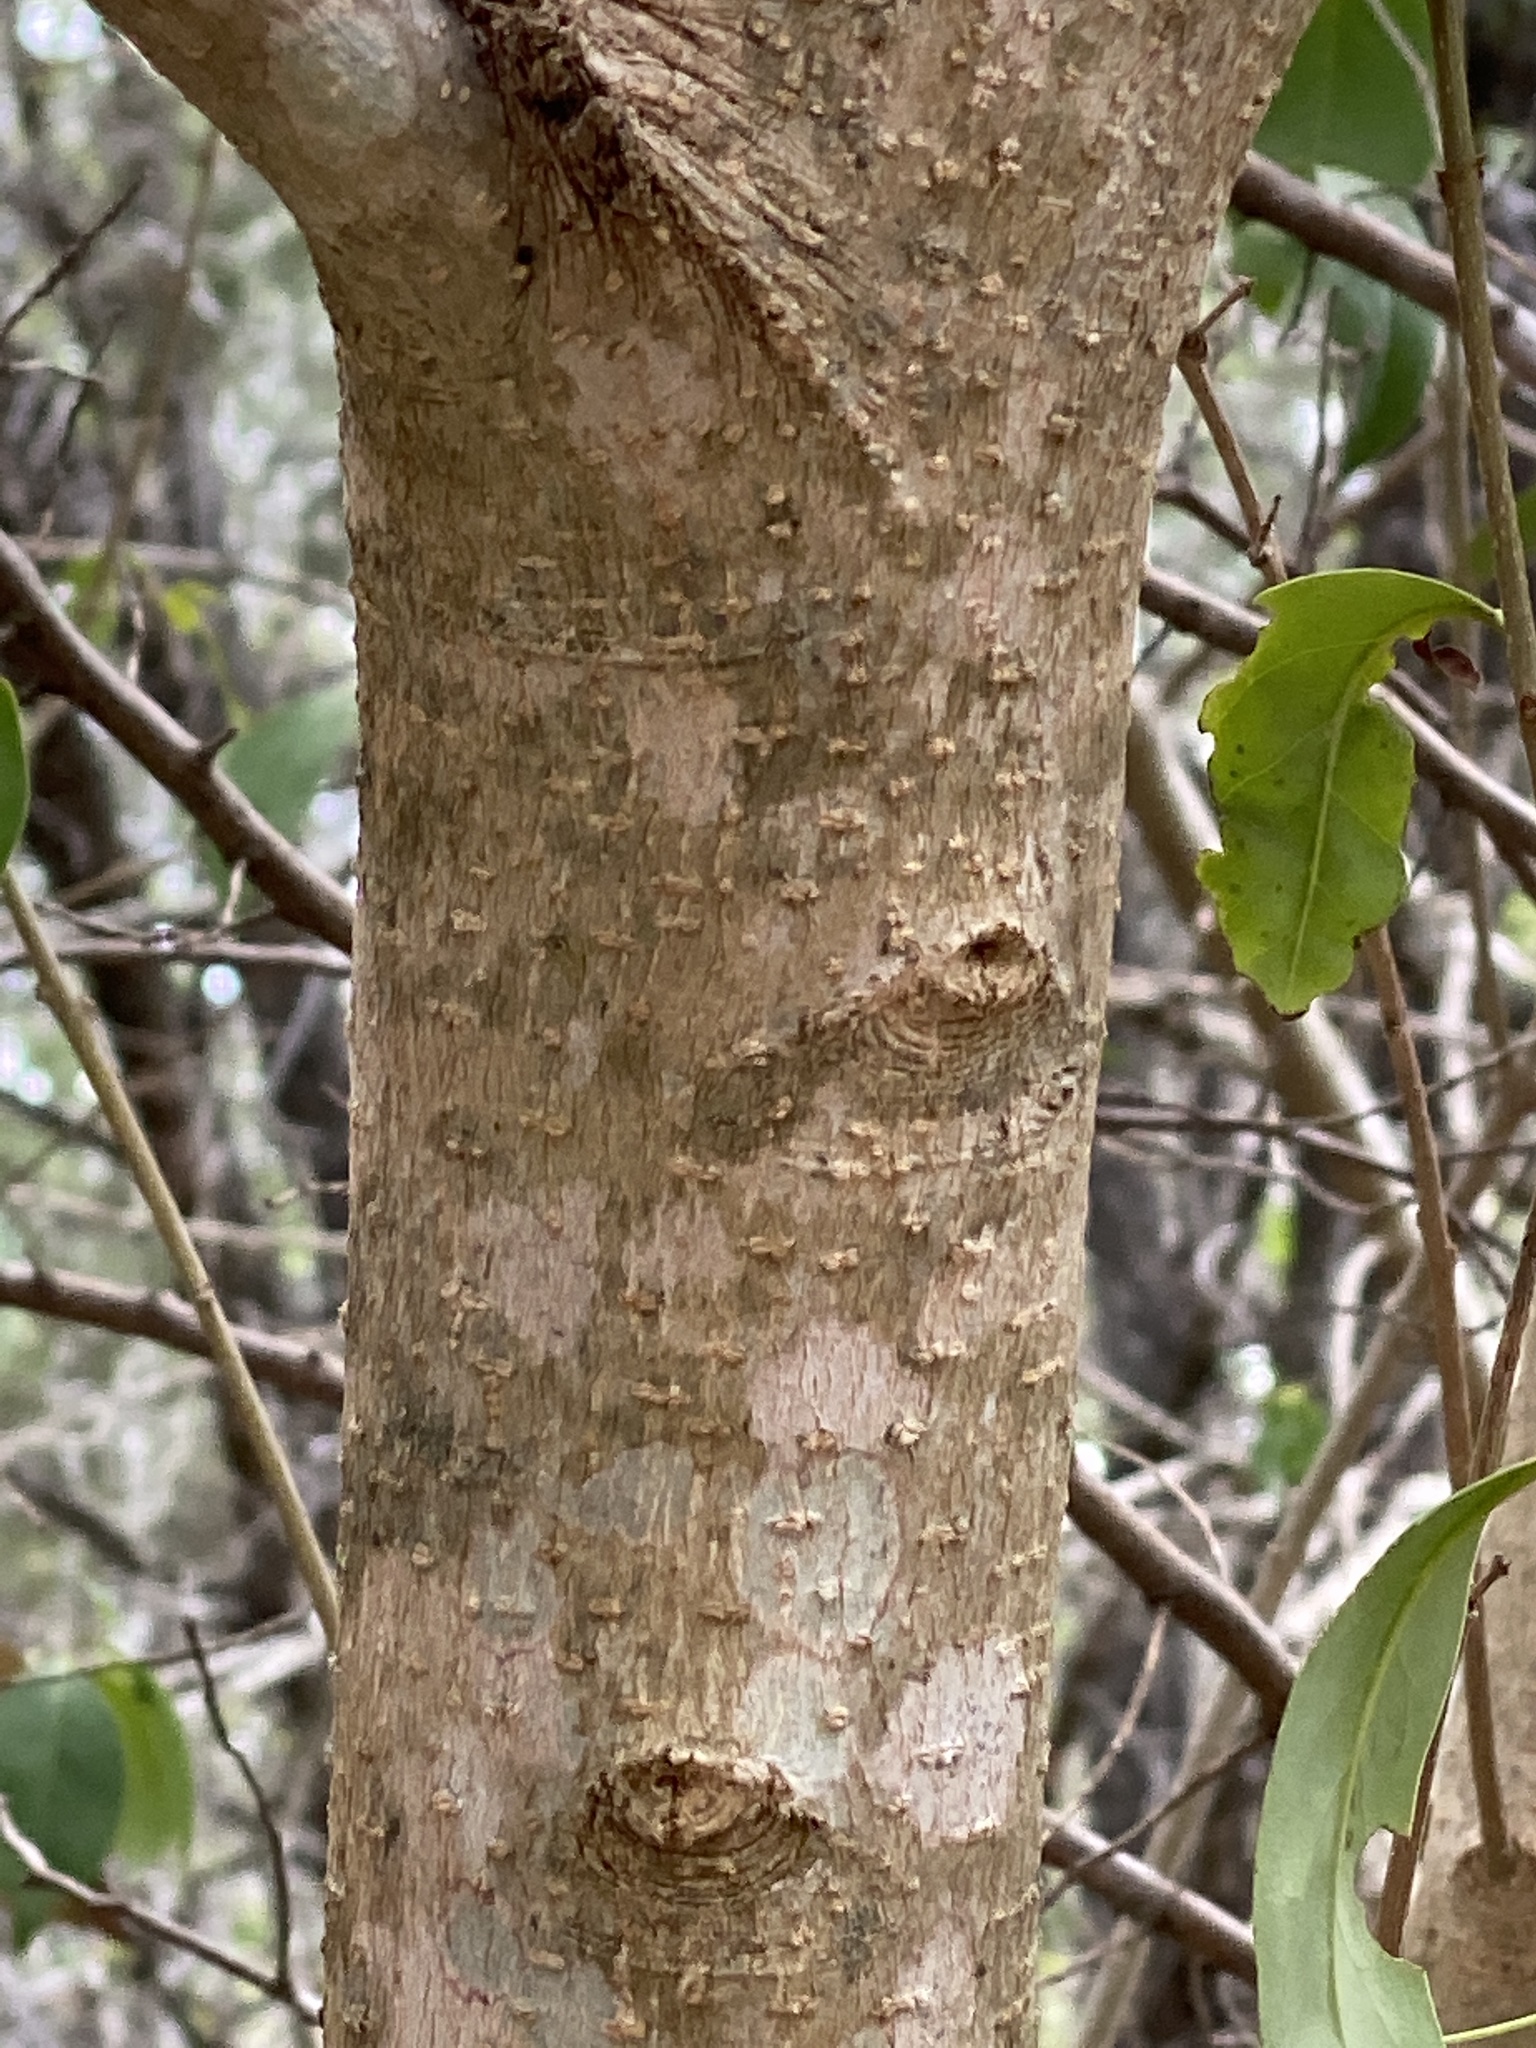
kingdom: Plantae
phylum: Tracheophyta
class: Magnoliopsida
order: Lamiales
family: Oleaceae
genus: Ligustrum
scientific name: Ligustrum lucidum
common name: Glossy privet
